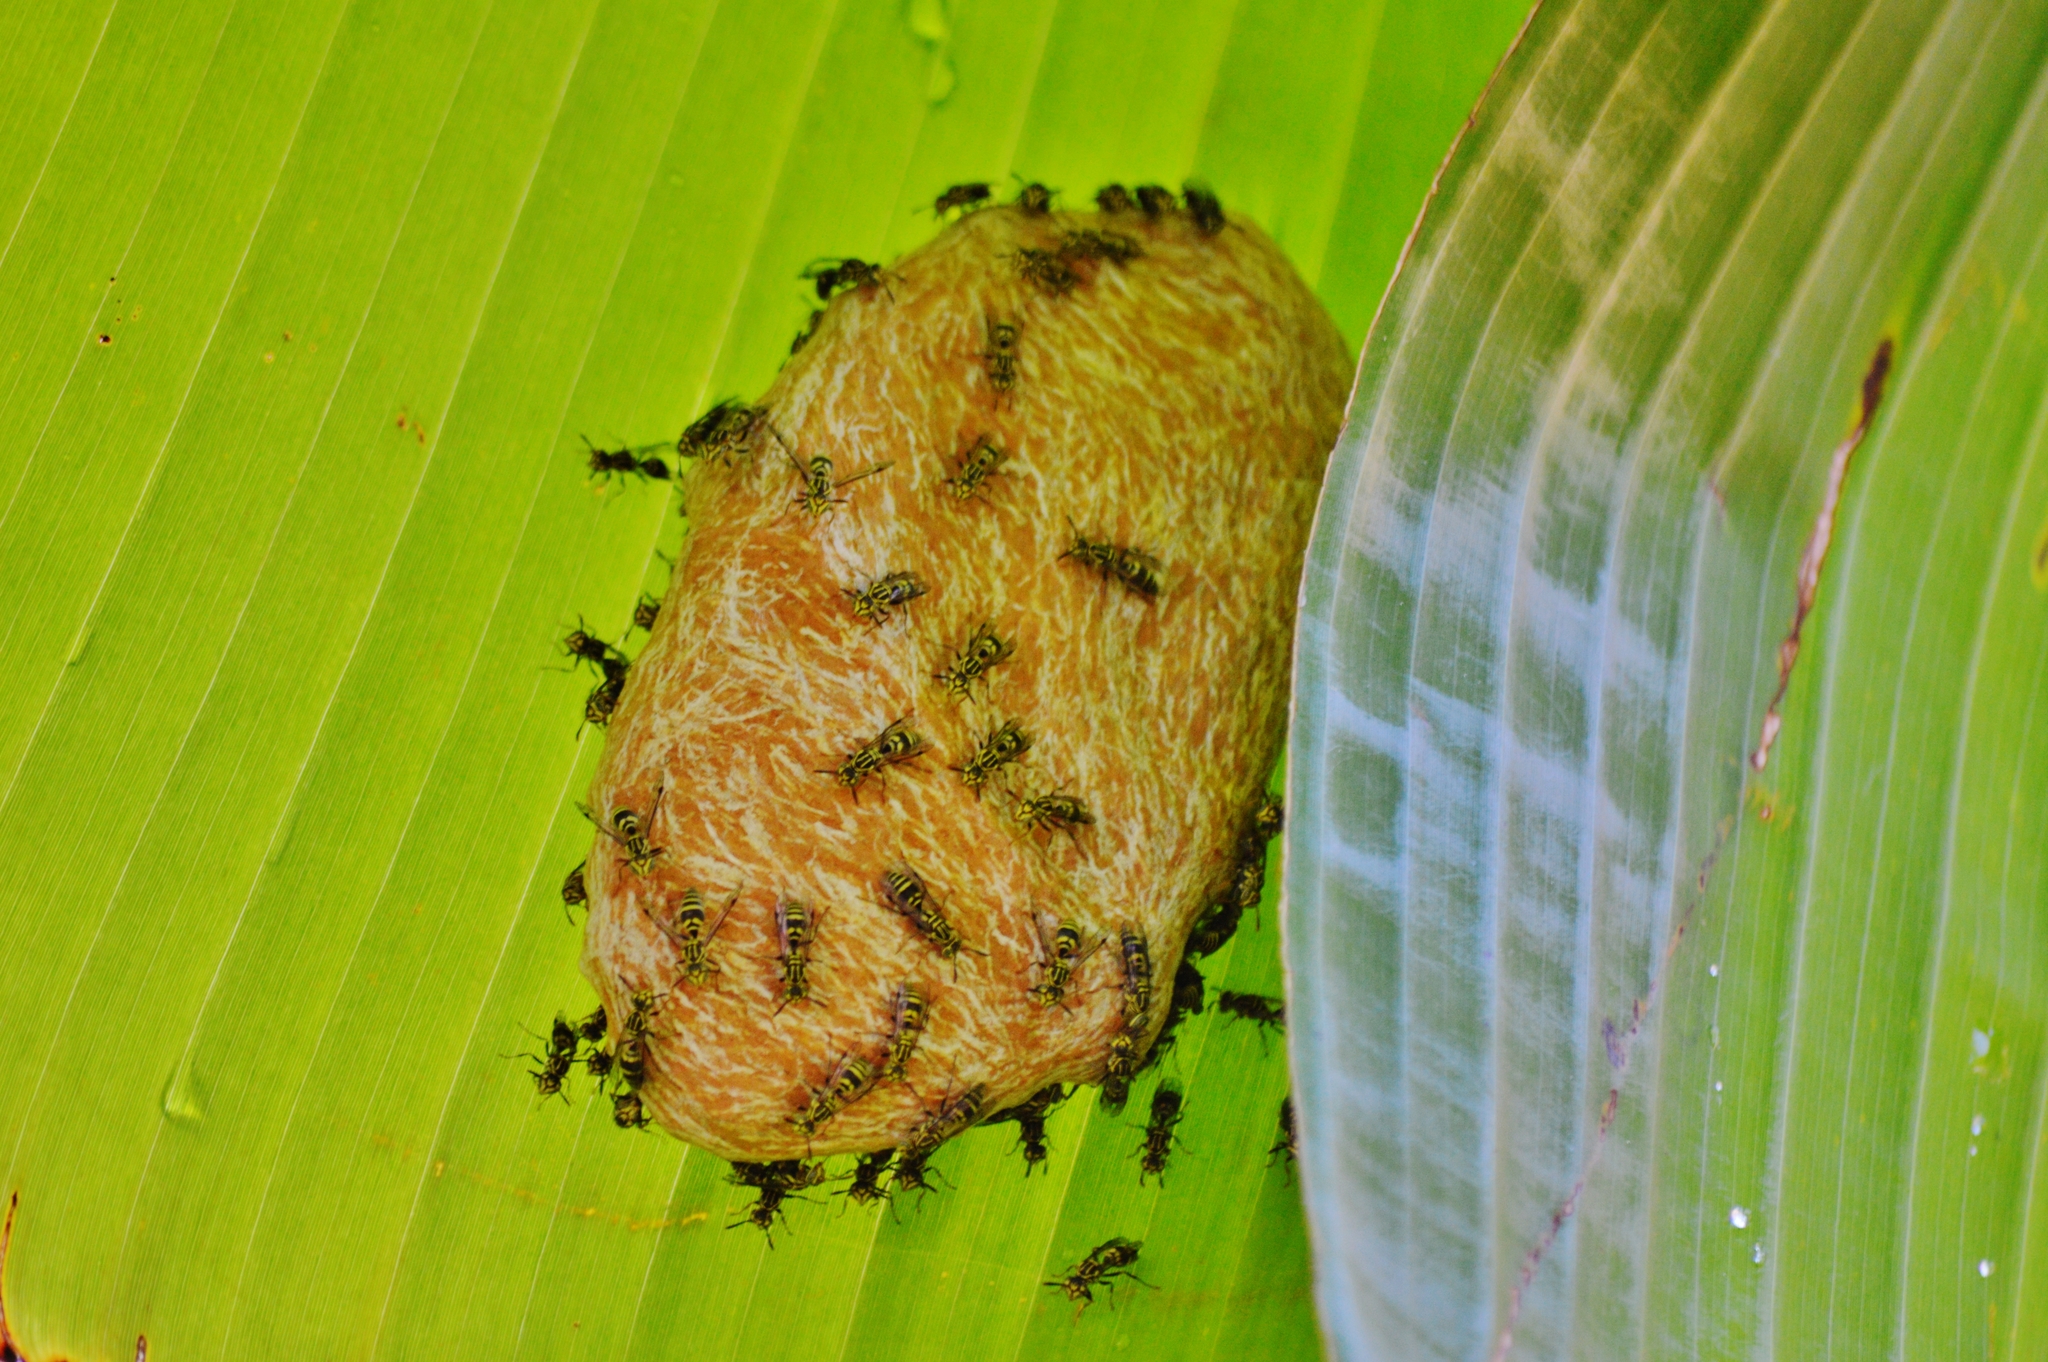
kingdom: Animalia
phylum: Arthropoda
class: Insecta
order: Hymenoptera
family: Vespidae
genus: Protopolybia
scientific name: Protopolybia exigua
